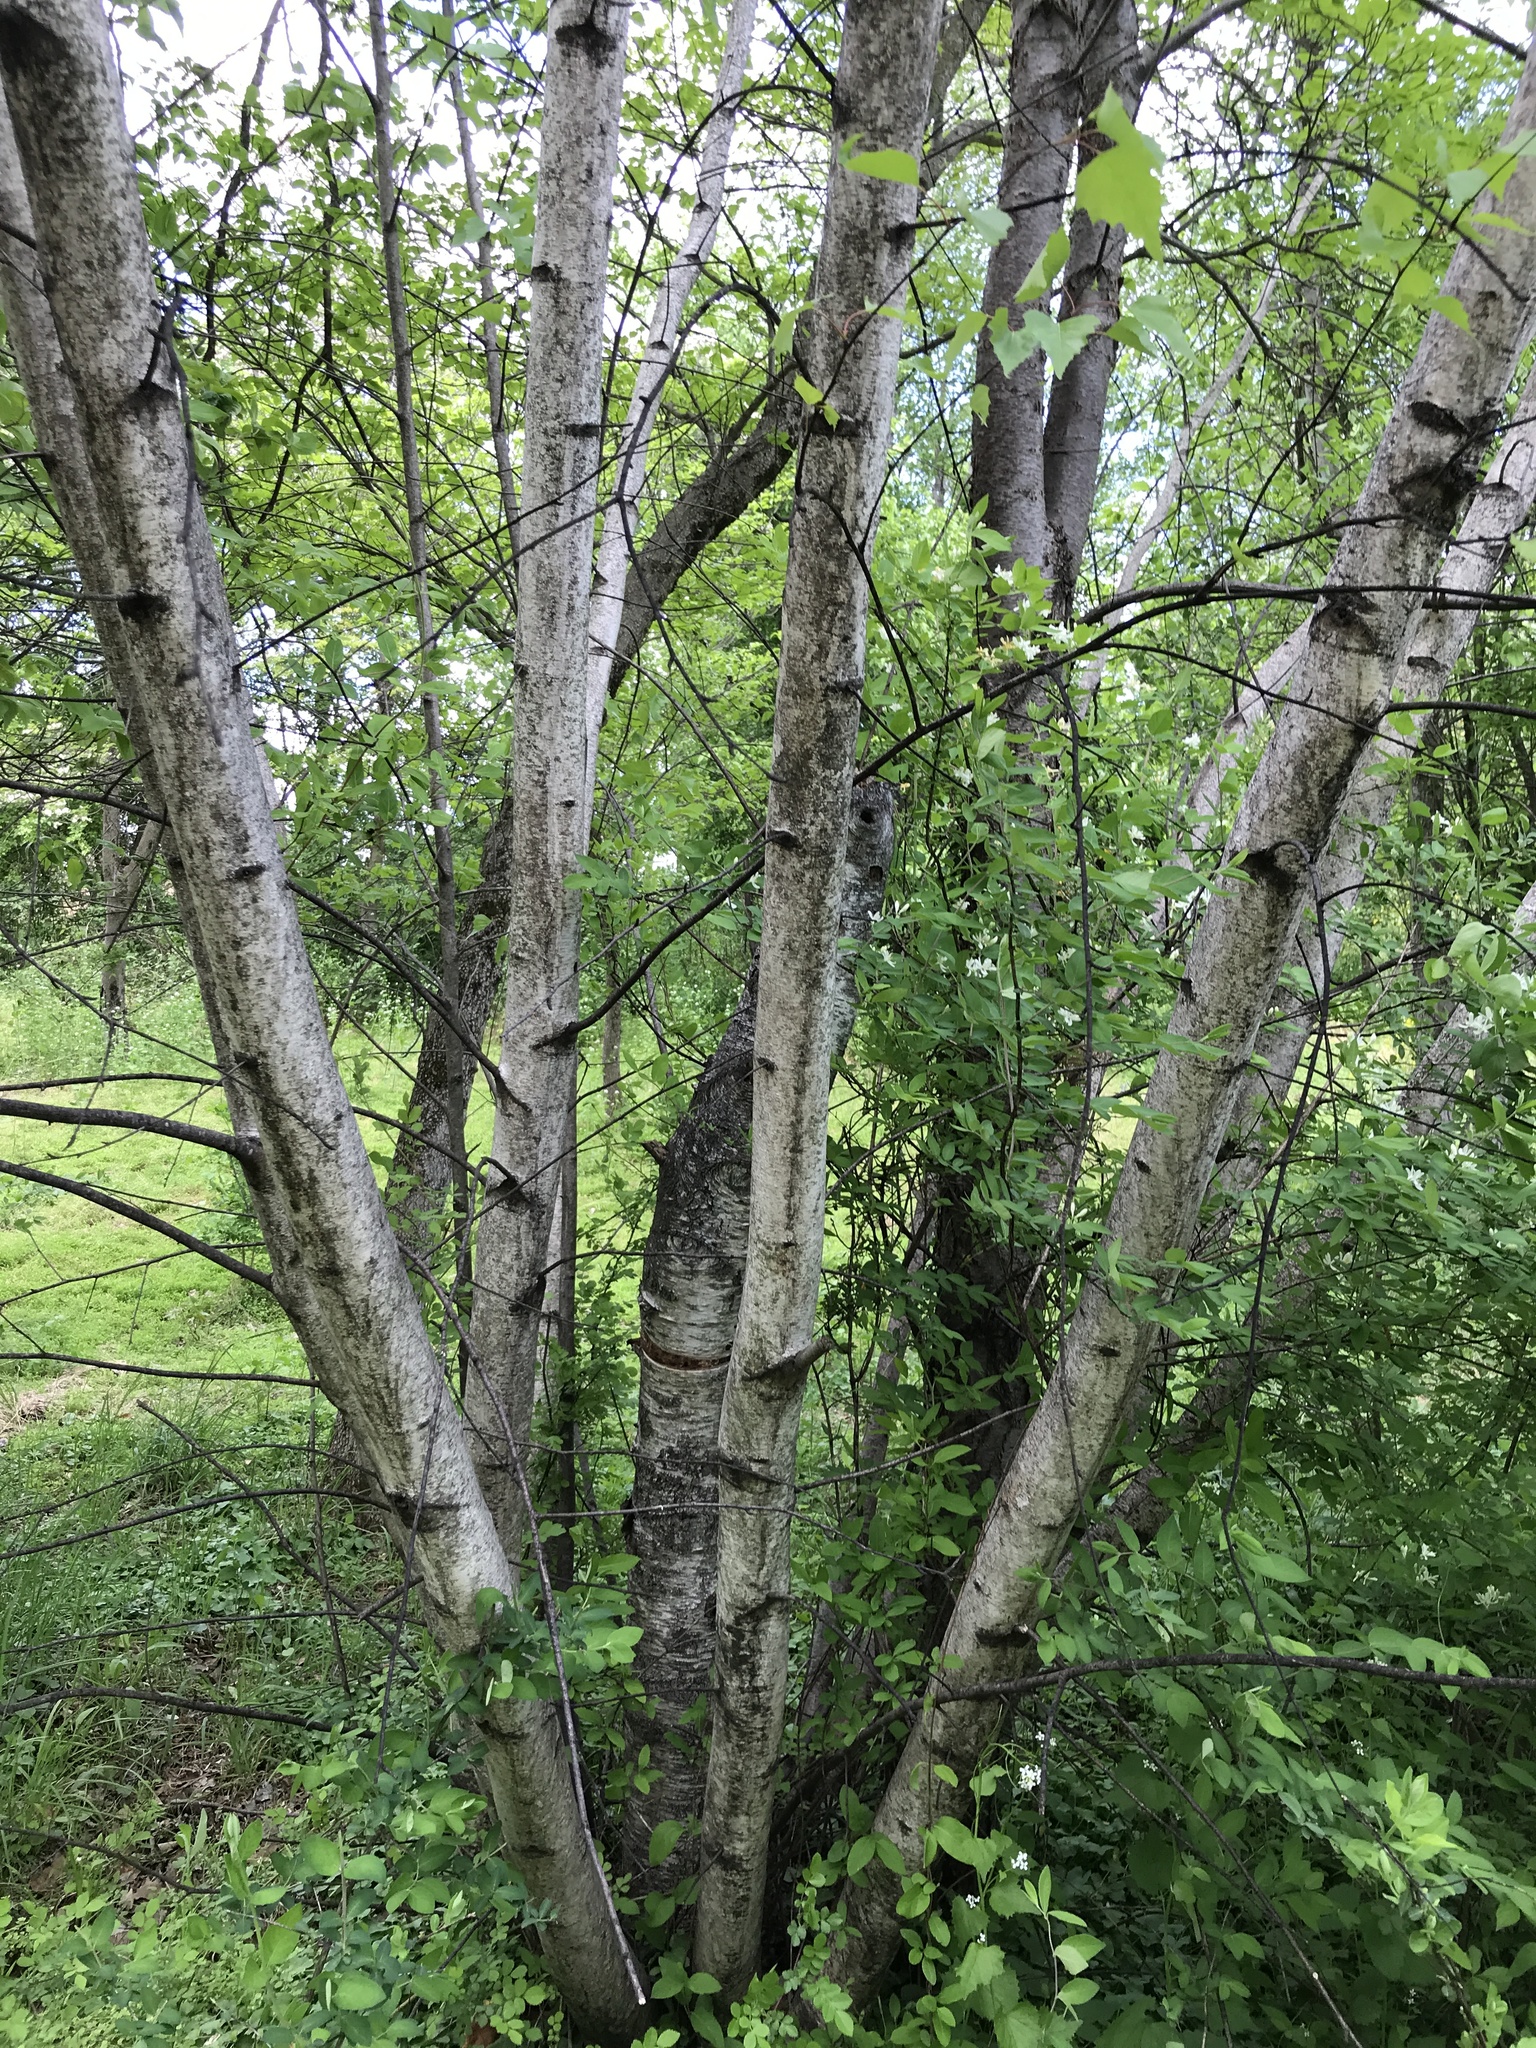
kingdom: Plantae
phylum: Tracheophyta
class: Magnoliopsida
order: Fagales
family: Betulaceae
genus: Betula
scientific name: Betula populifolia
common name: Fire birch
